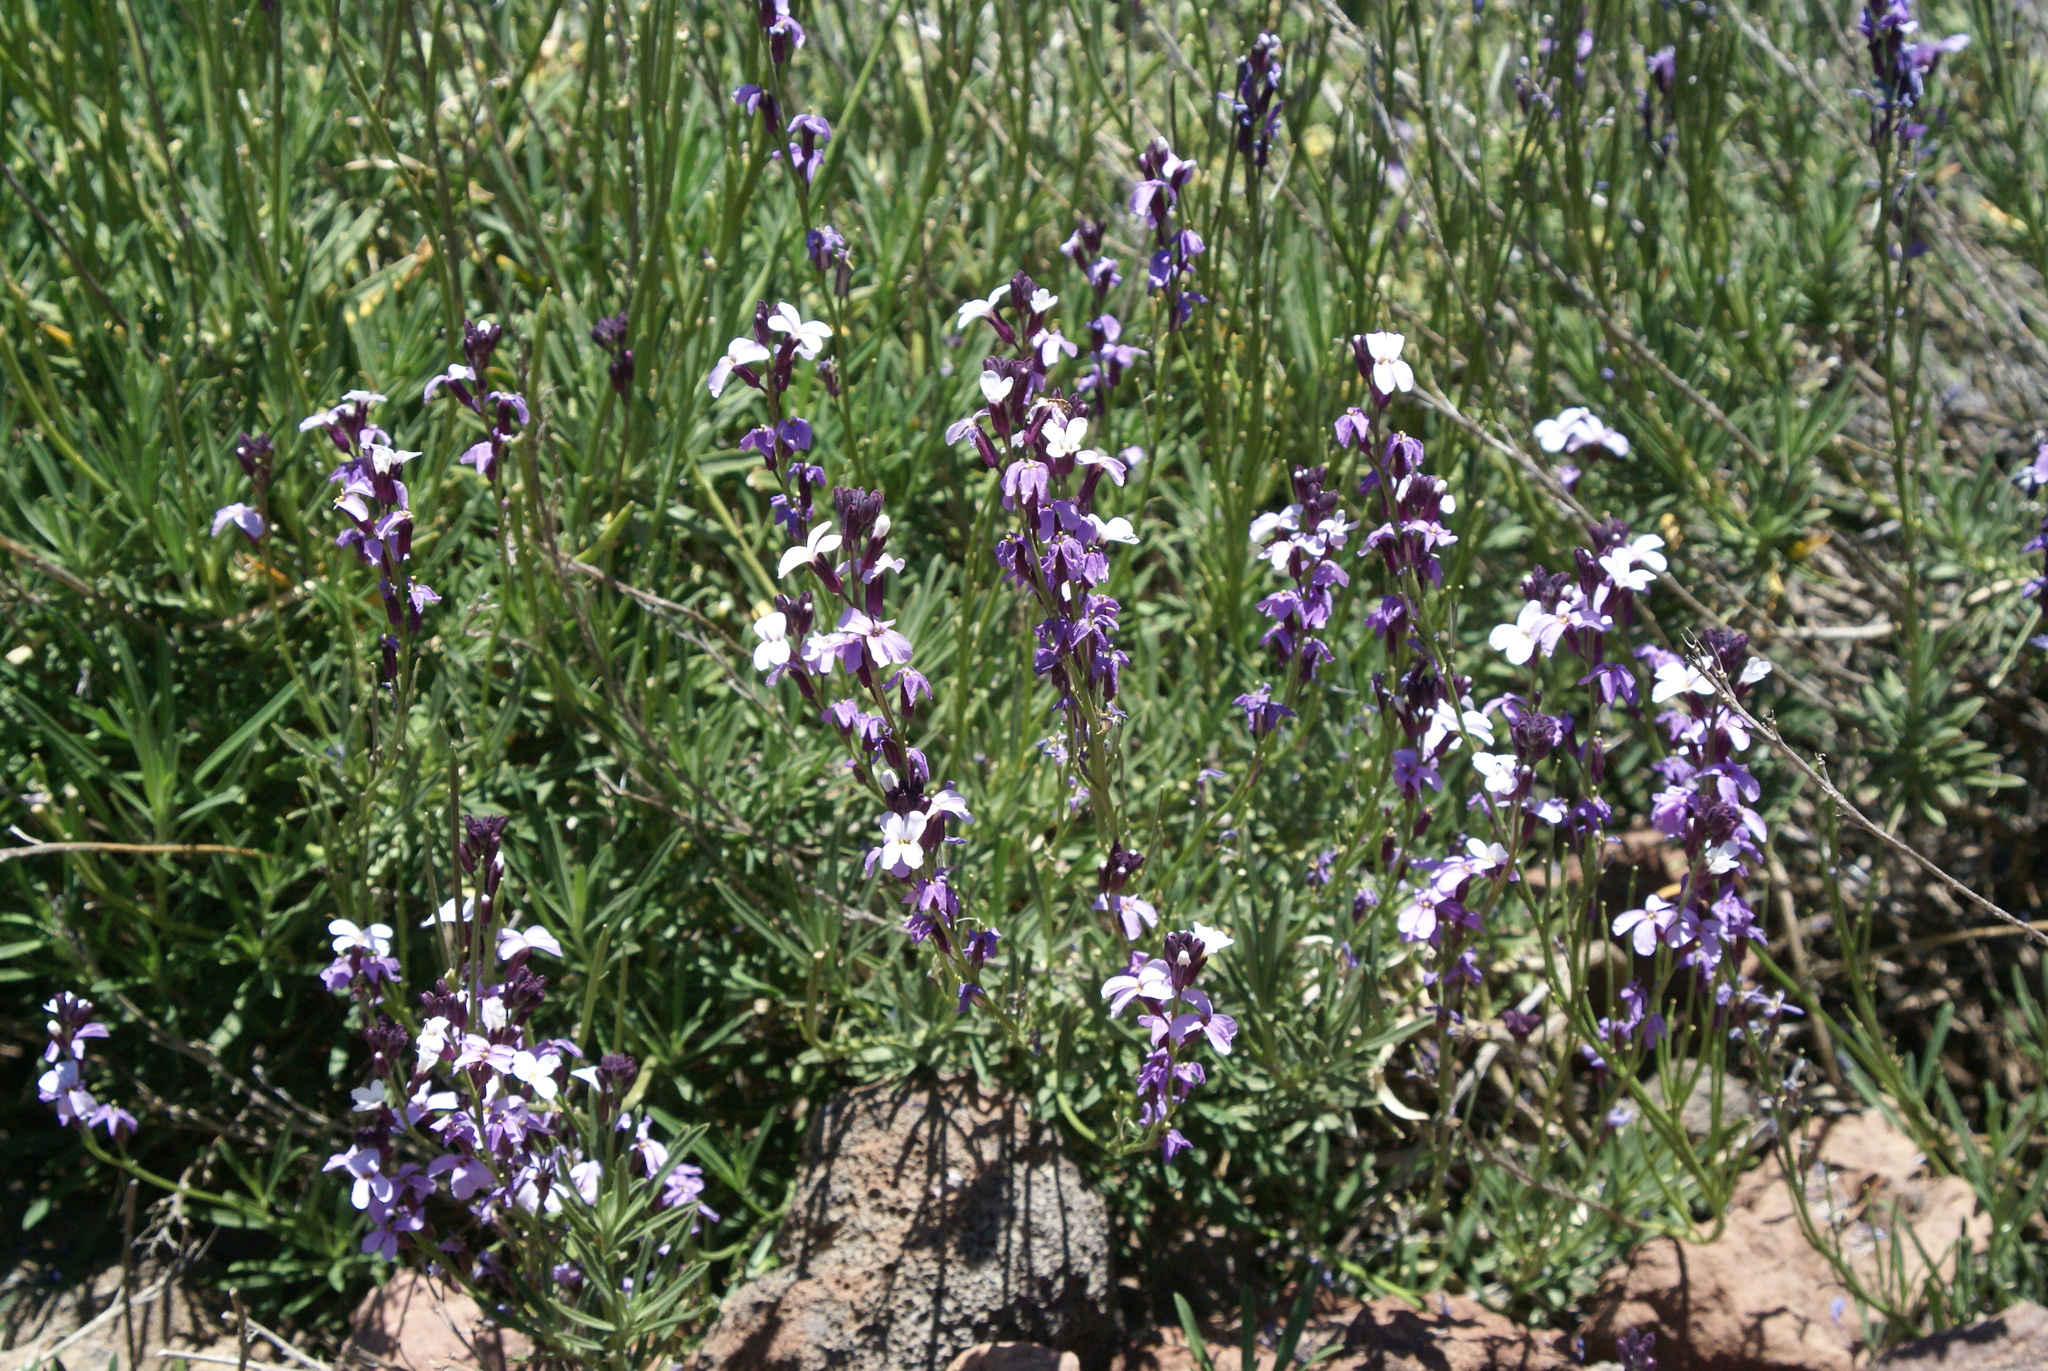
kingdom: Plantae
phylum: Tracheophyta
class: Magnoliopsida
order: Brassicales
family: Brassicaceae
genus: Erysimum
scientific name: Erysimum scoparium
